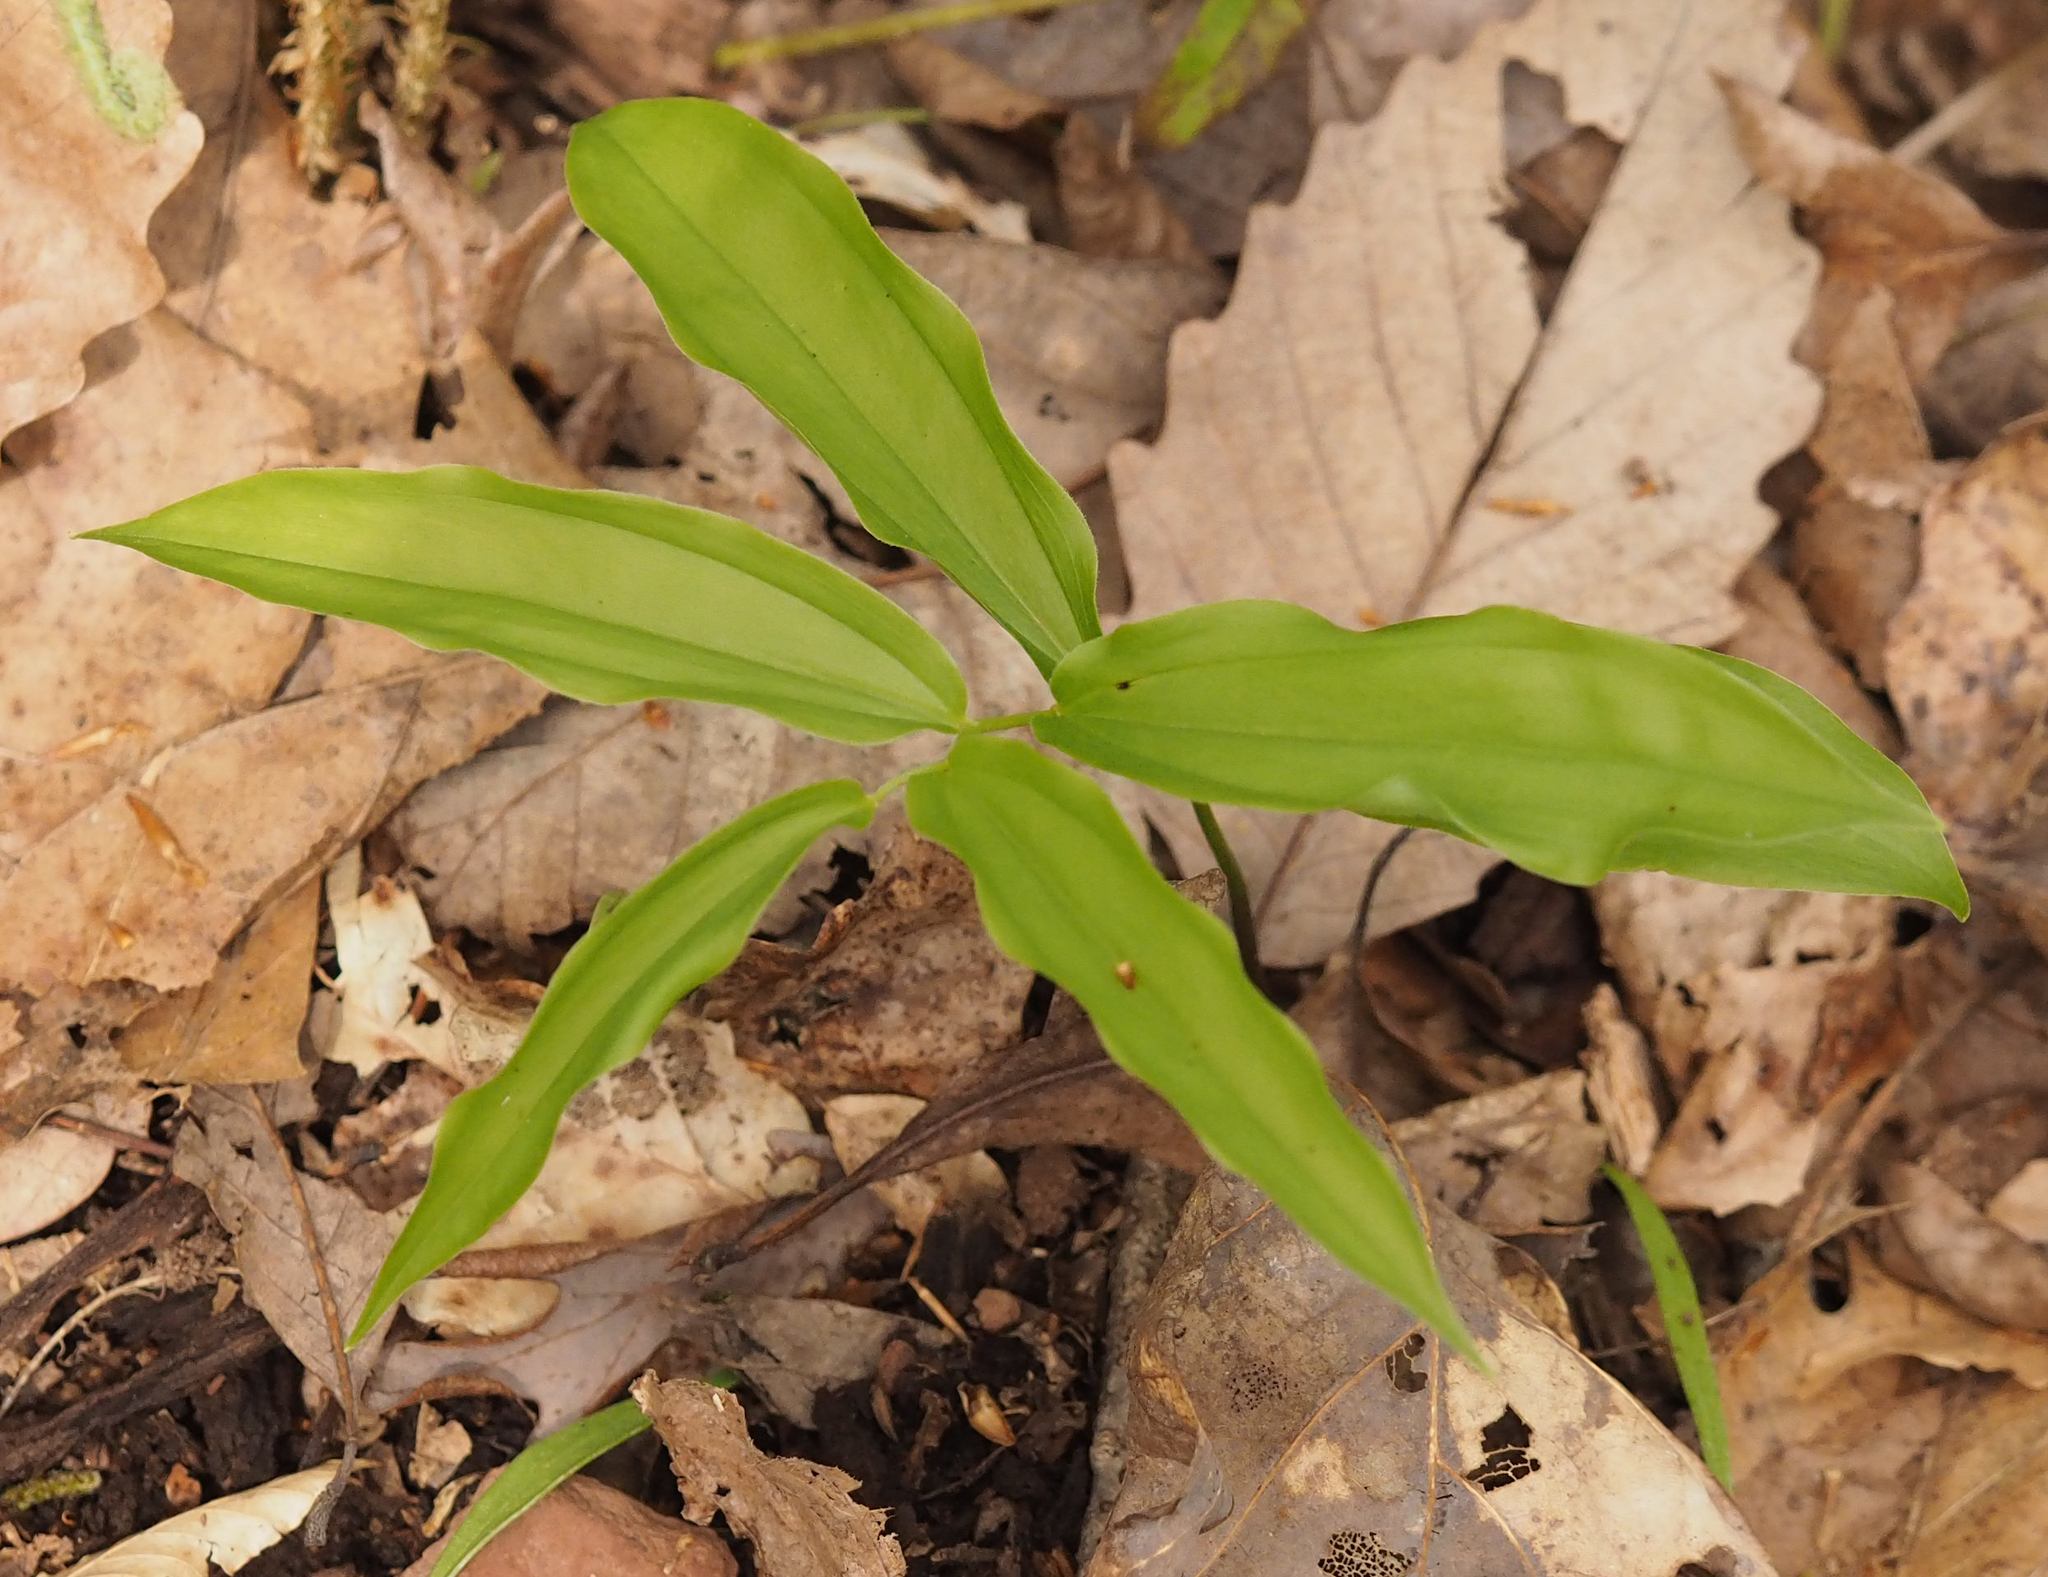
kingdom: Plantae
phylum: Tracheophyta
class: Liliopsida
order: Asparagales
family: Asparagaceae
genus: Maianthemum
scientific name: Maianthemum racemosum
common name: False spikenard
